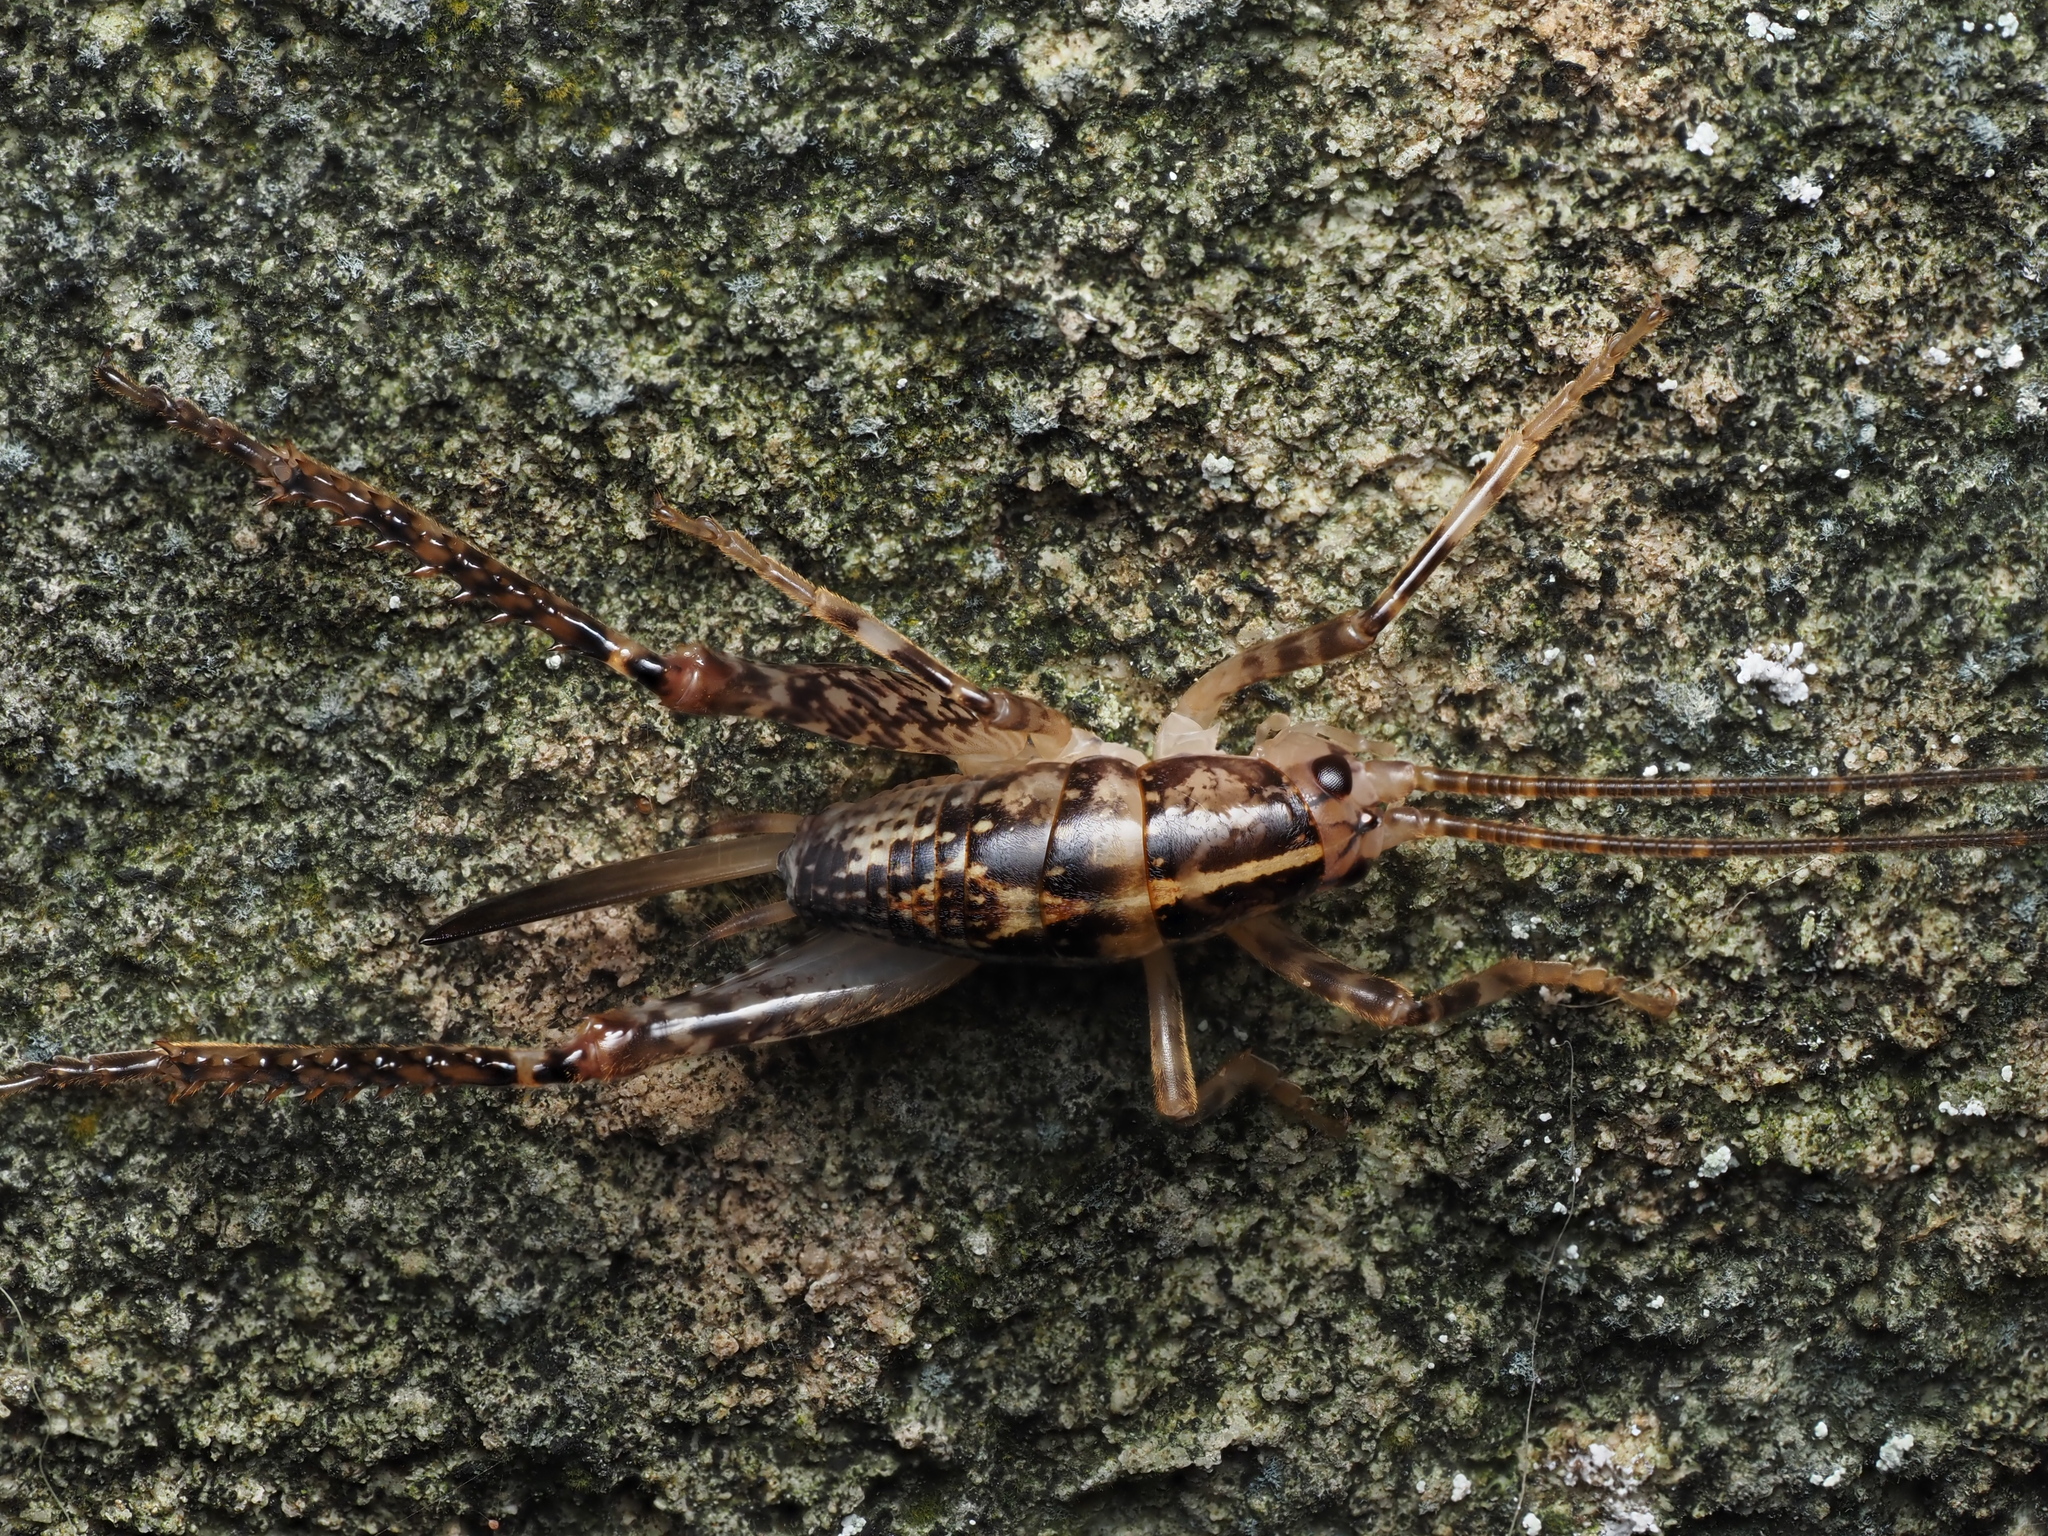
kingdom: Animalia
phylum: Arthropoda
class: Insecta
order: Orthoptera
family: Rhaphidophoridae
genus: Talitropsis
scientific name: Talitropsis sedilloti
